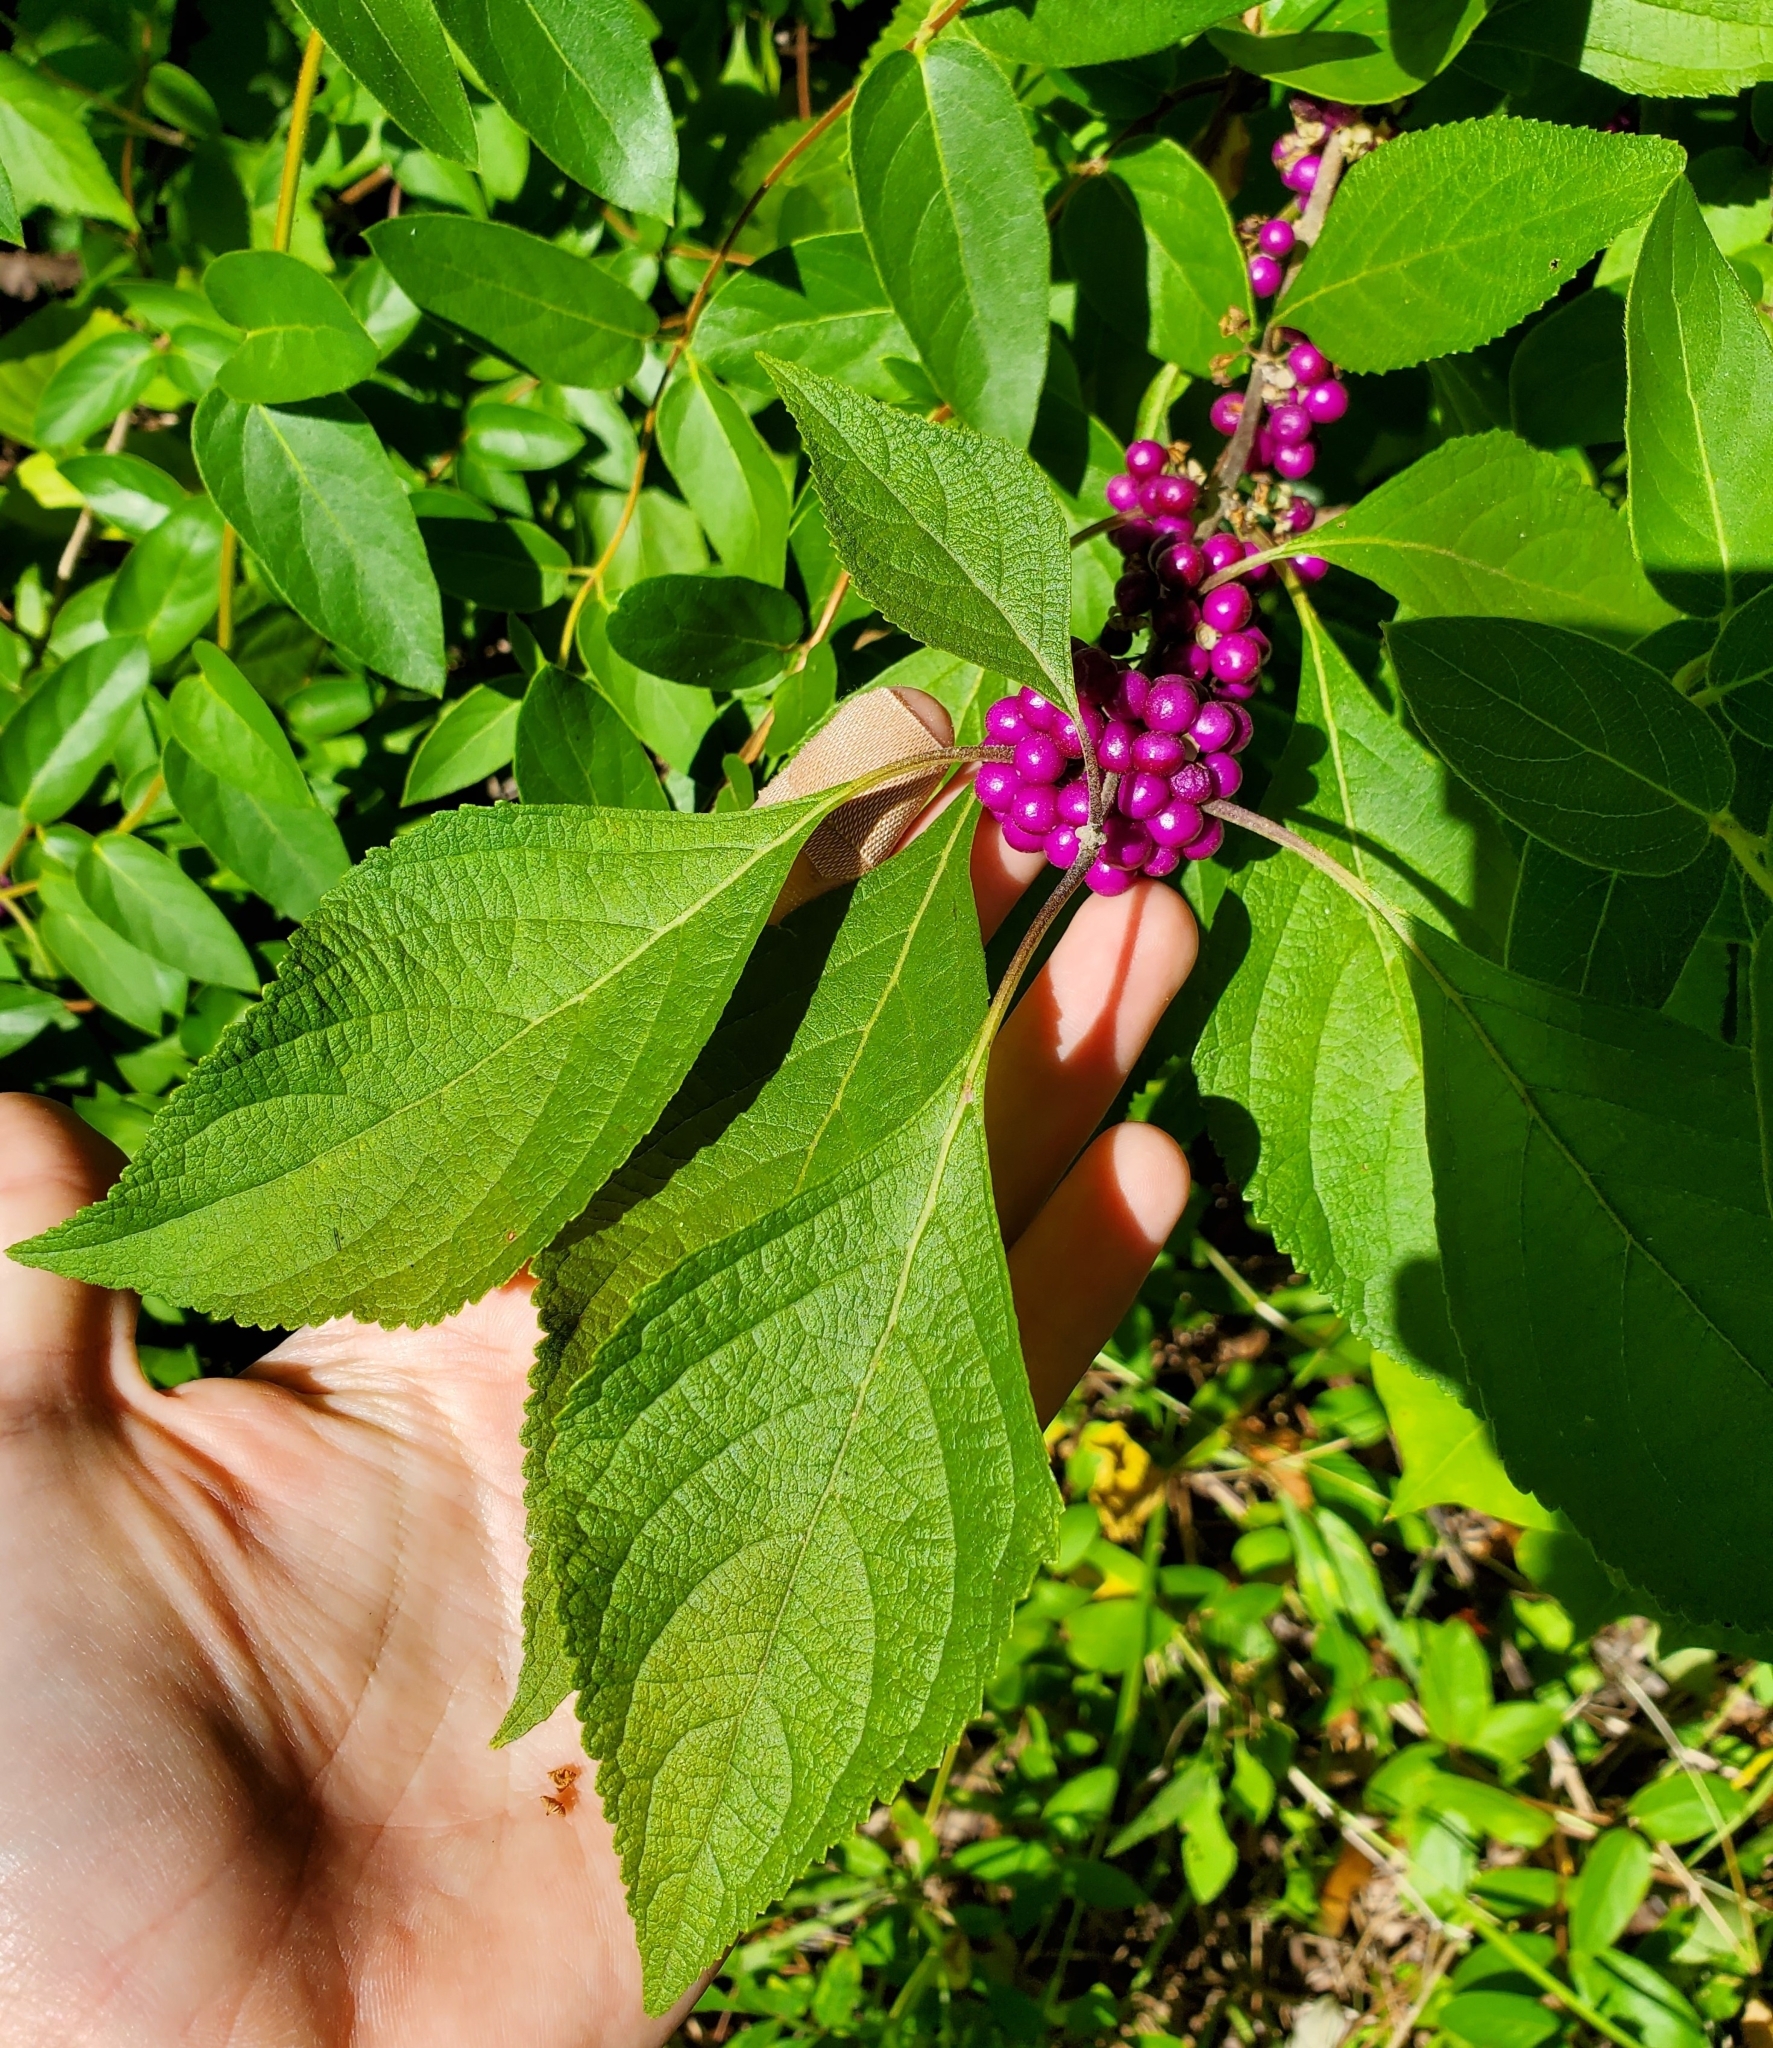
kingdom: Plantae
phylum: Tracheophyta
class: Magnoliopsida
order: Lamiales
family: Lamiaceae
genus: Callicarpa
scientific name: Callicarpa americana
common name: American beautyberry
